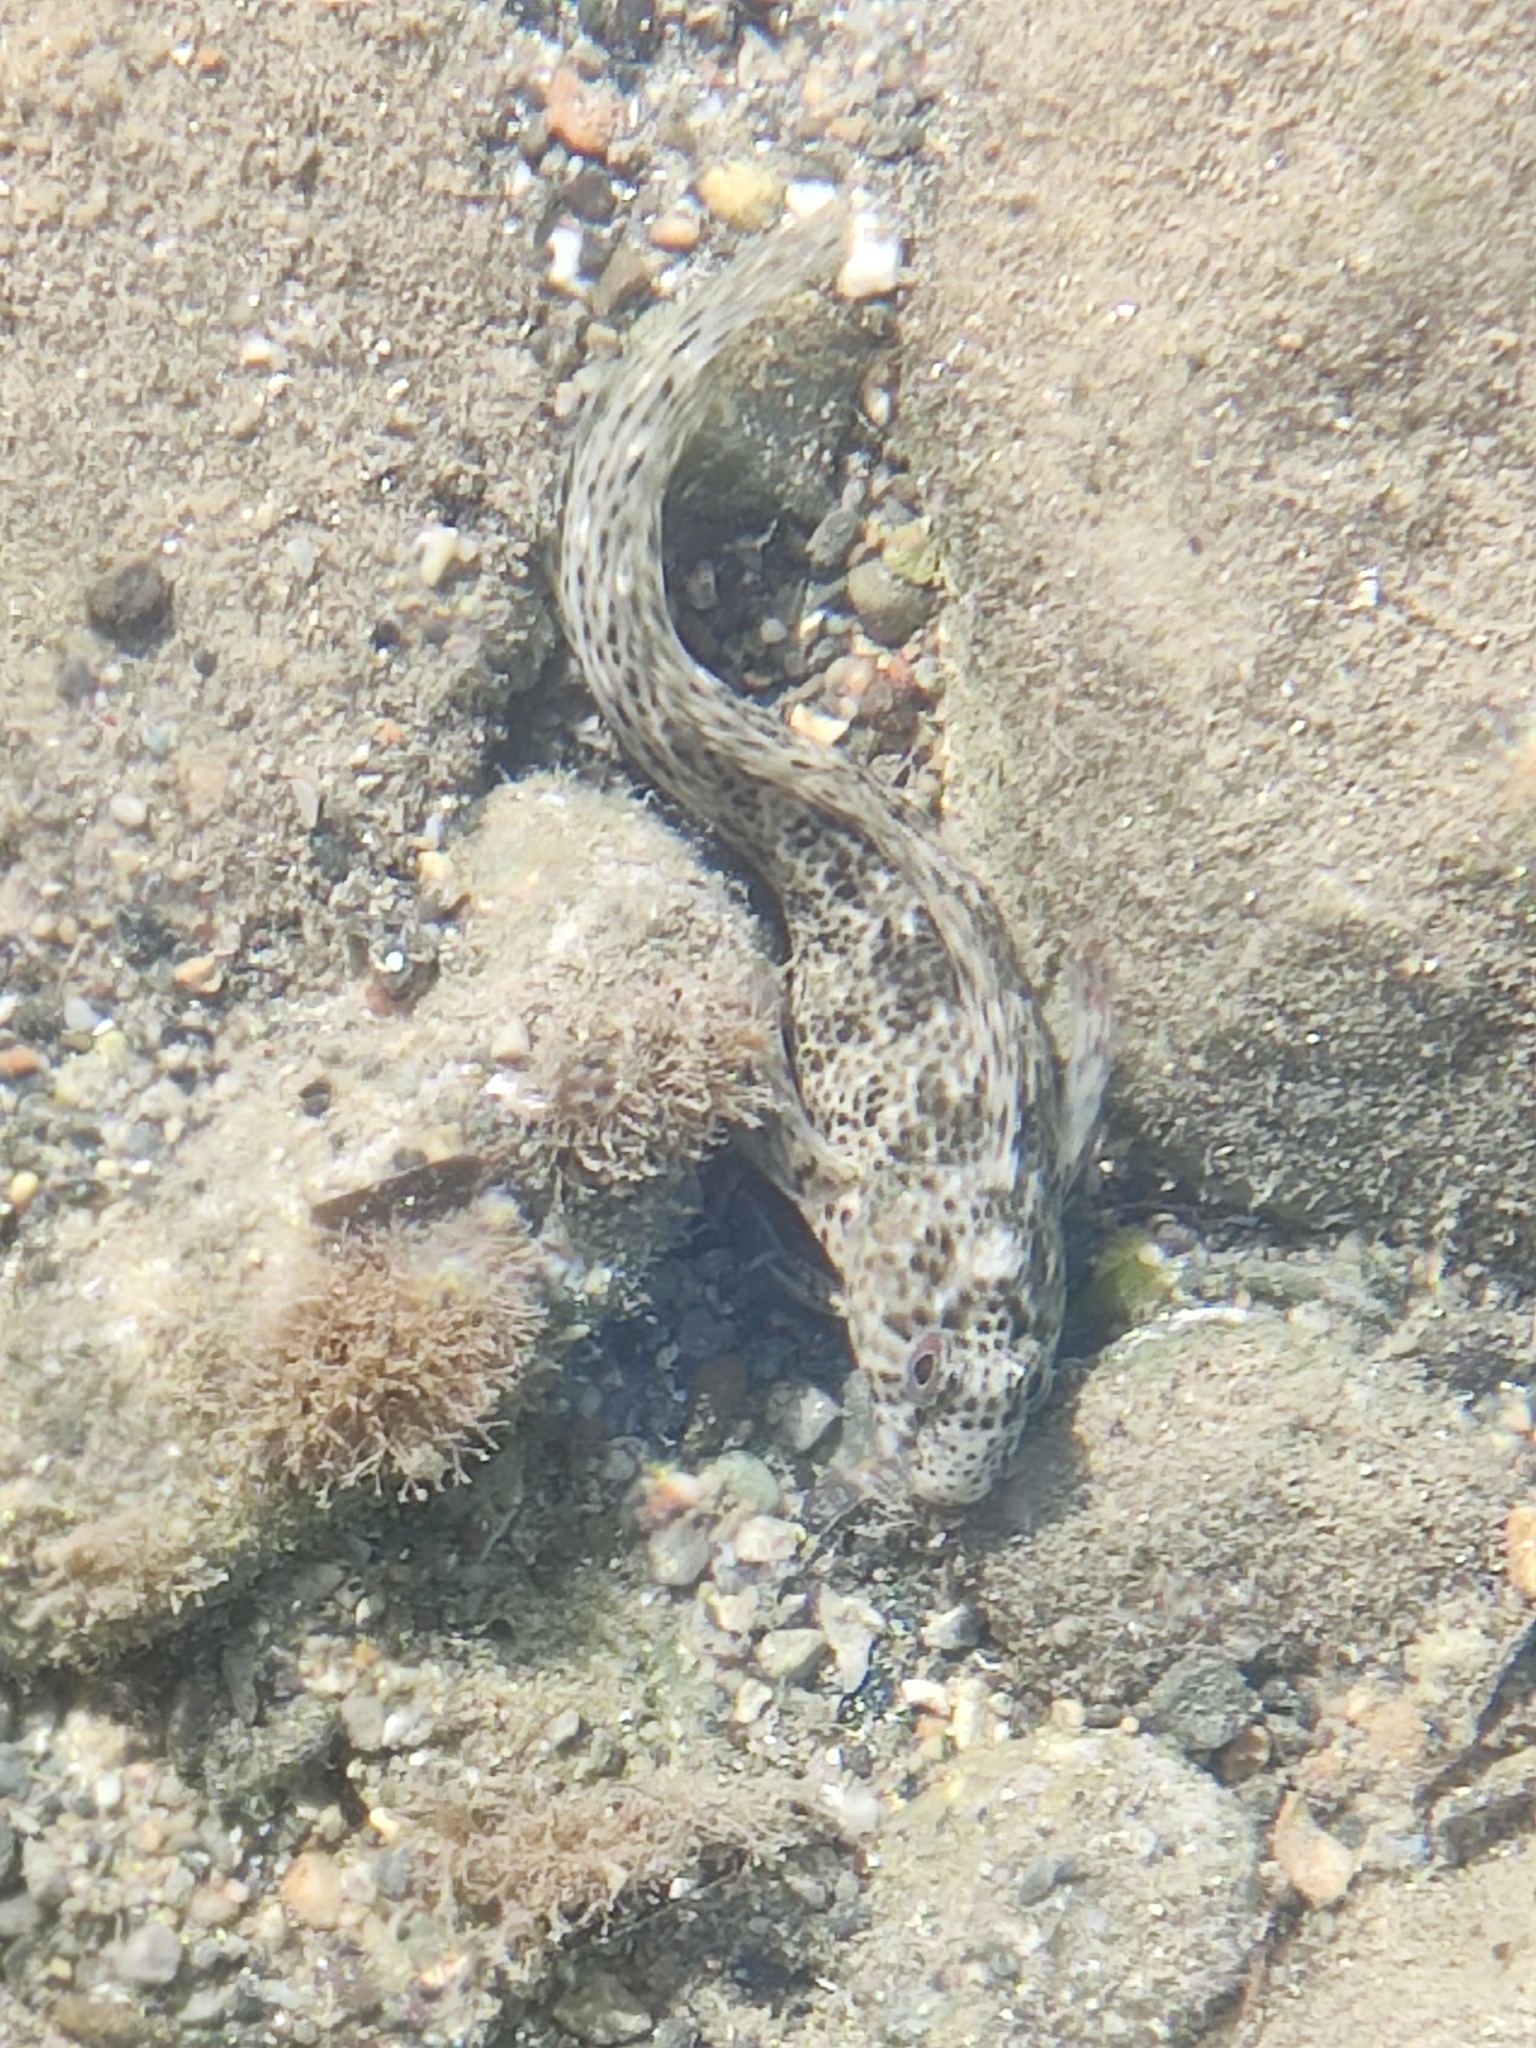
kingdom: Animalia
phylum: Chordata
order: Perciformes
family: Blenniidae
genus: Parablennius
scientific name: Parablennius sanguinolentus
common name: Black sea blenny
